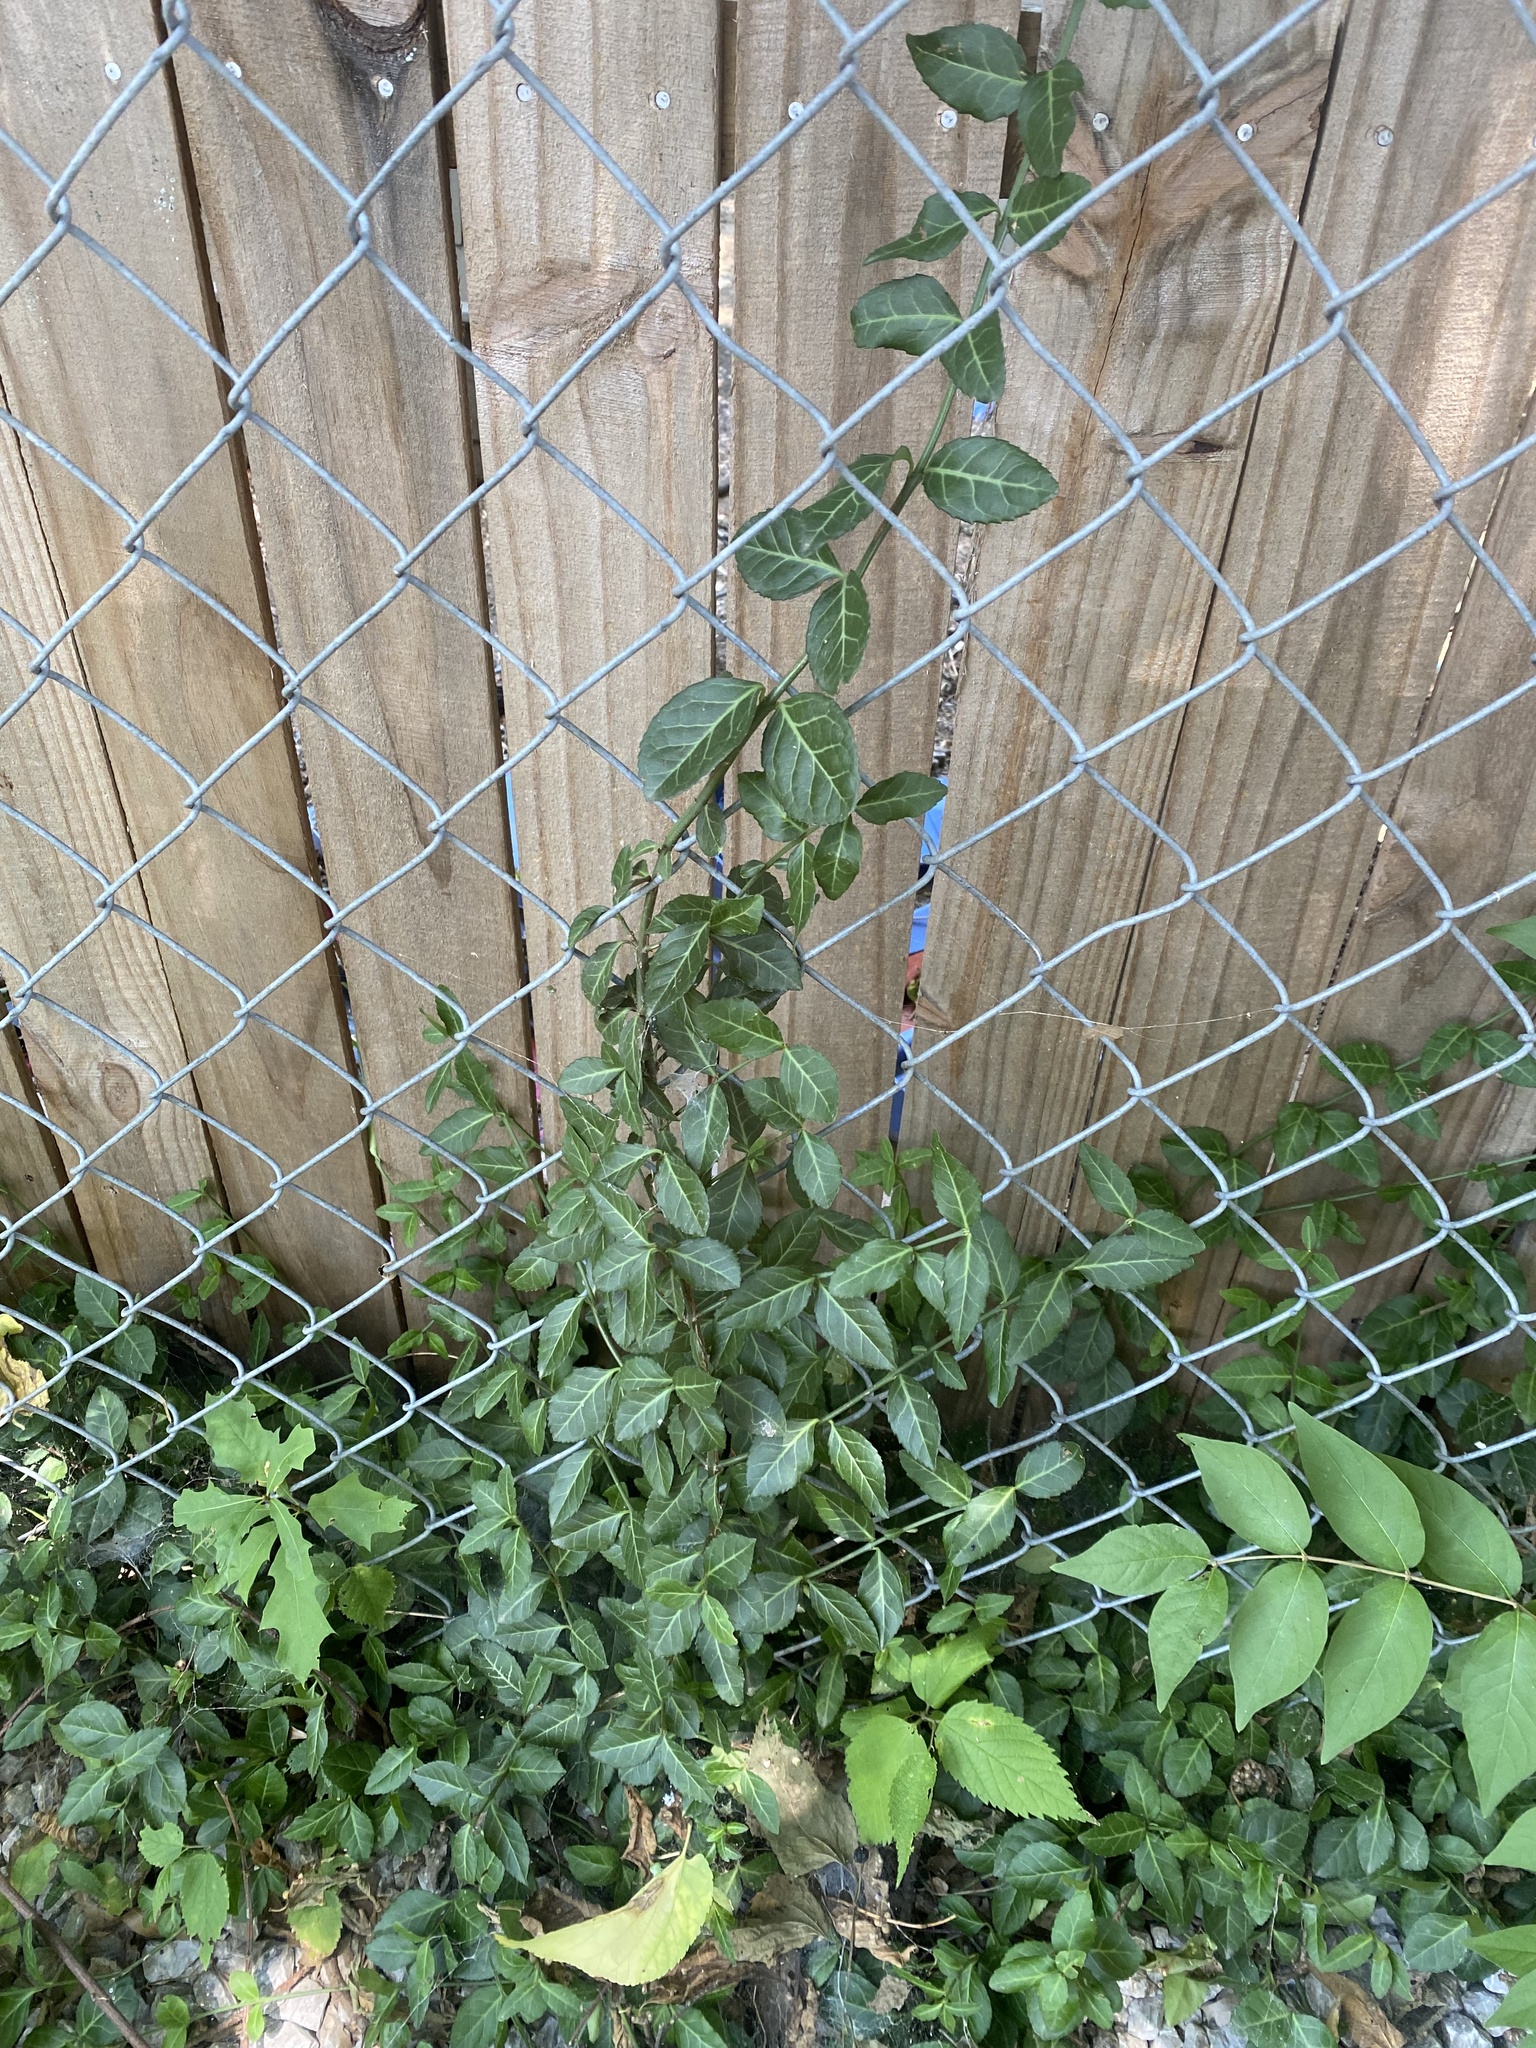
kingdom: Plantae
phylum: Tracheophyta
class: Magnoliopsida
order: Celastrales
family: Celastraceae
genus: Euonymus
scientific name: Euonymus fortunei
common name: Climbing euonymus
